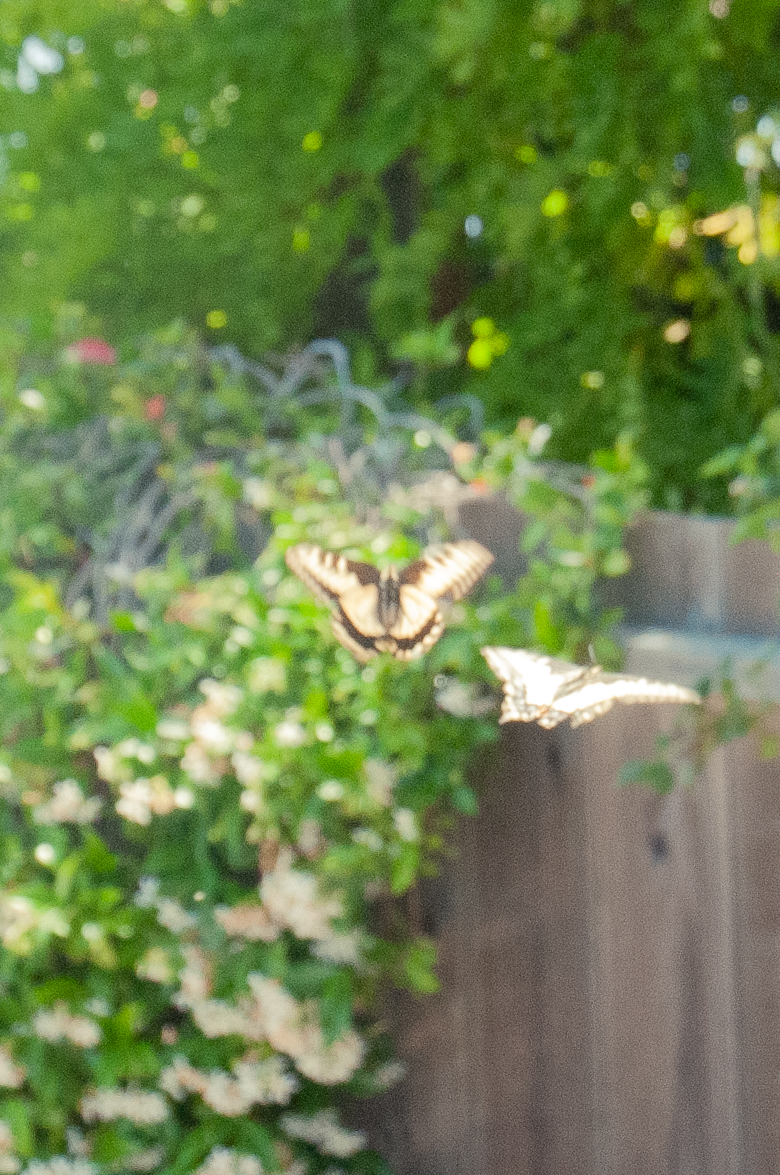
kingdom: Animalia
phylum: Arthropoda
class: Insecta
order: Lepidoptera
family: Papilionidae
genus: Papilio
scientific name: Papilio zelicaon
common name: Anise swallowtail
